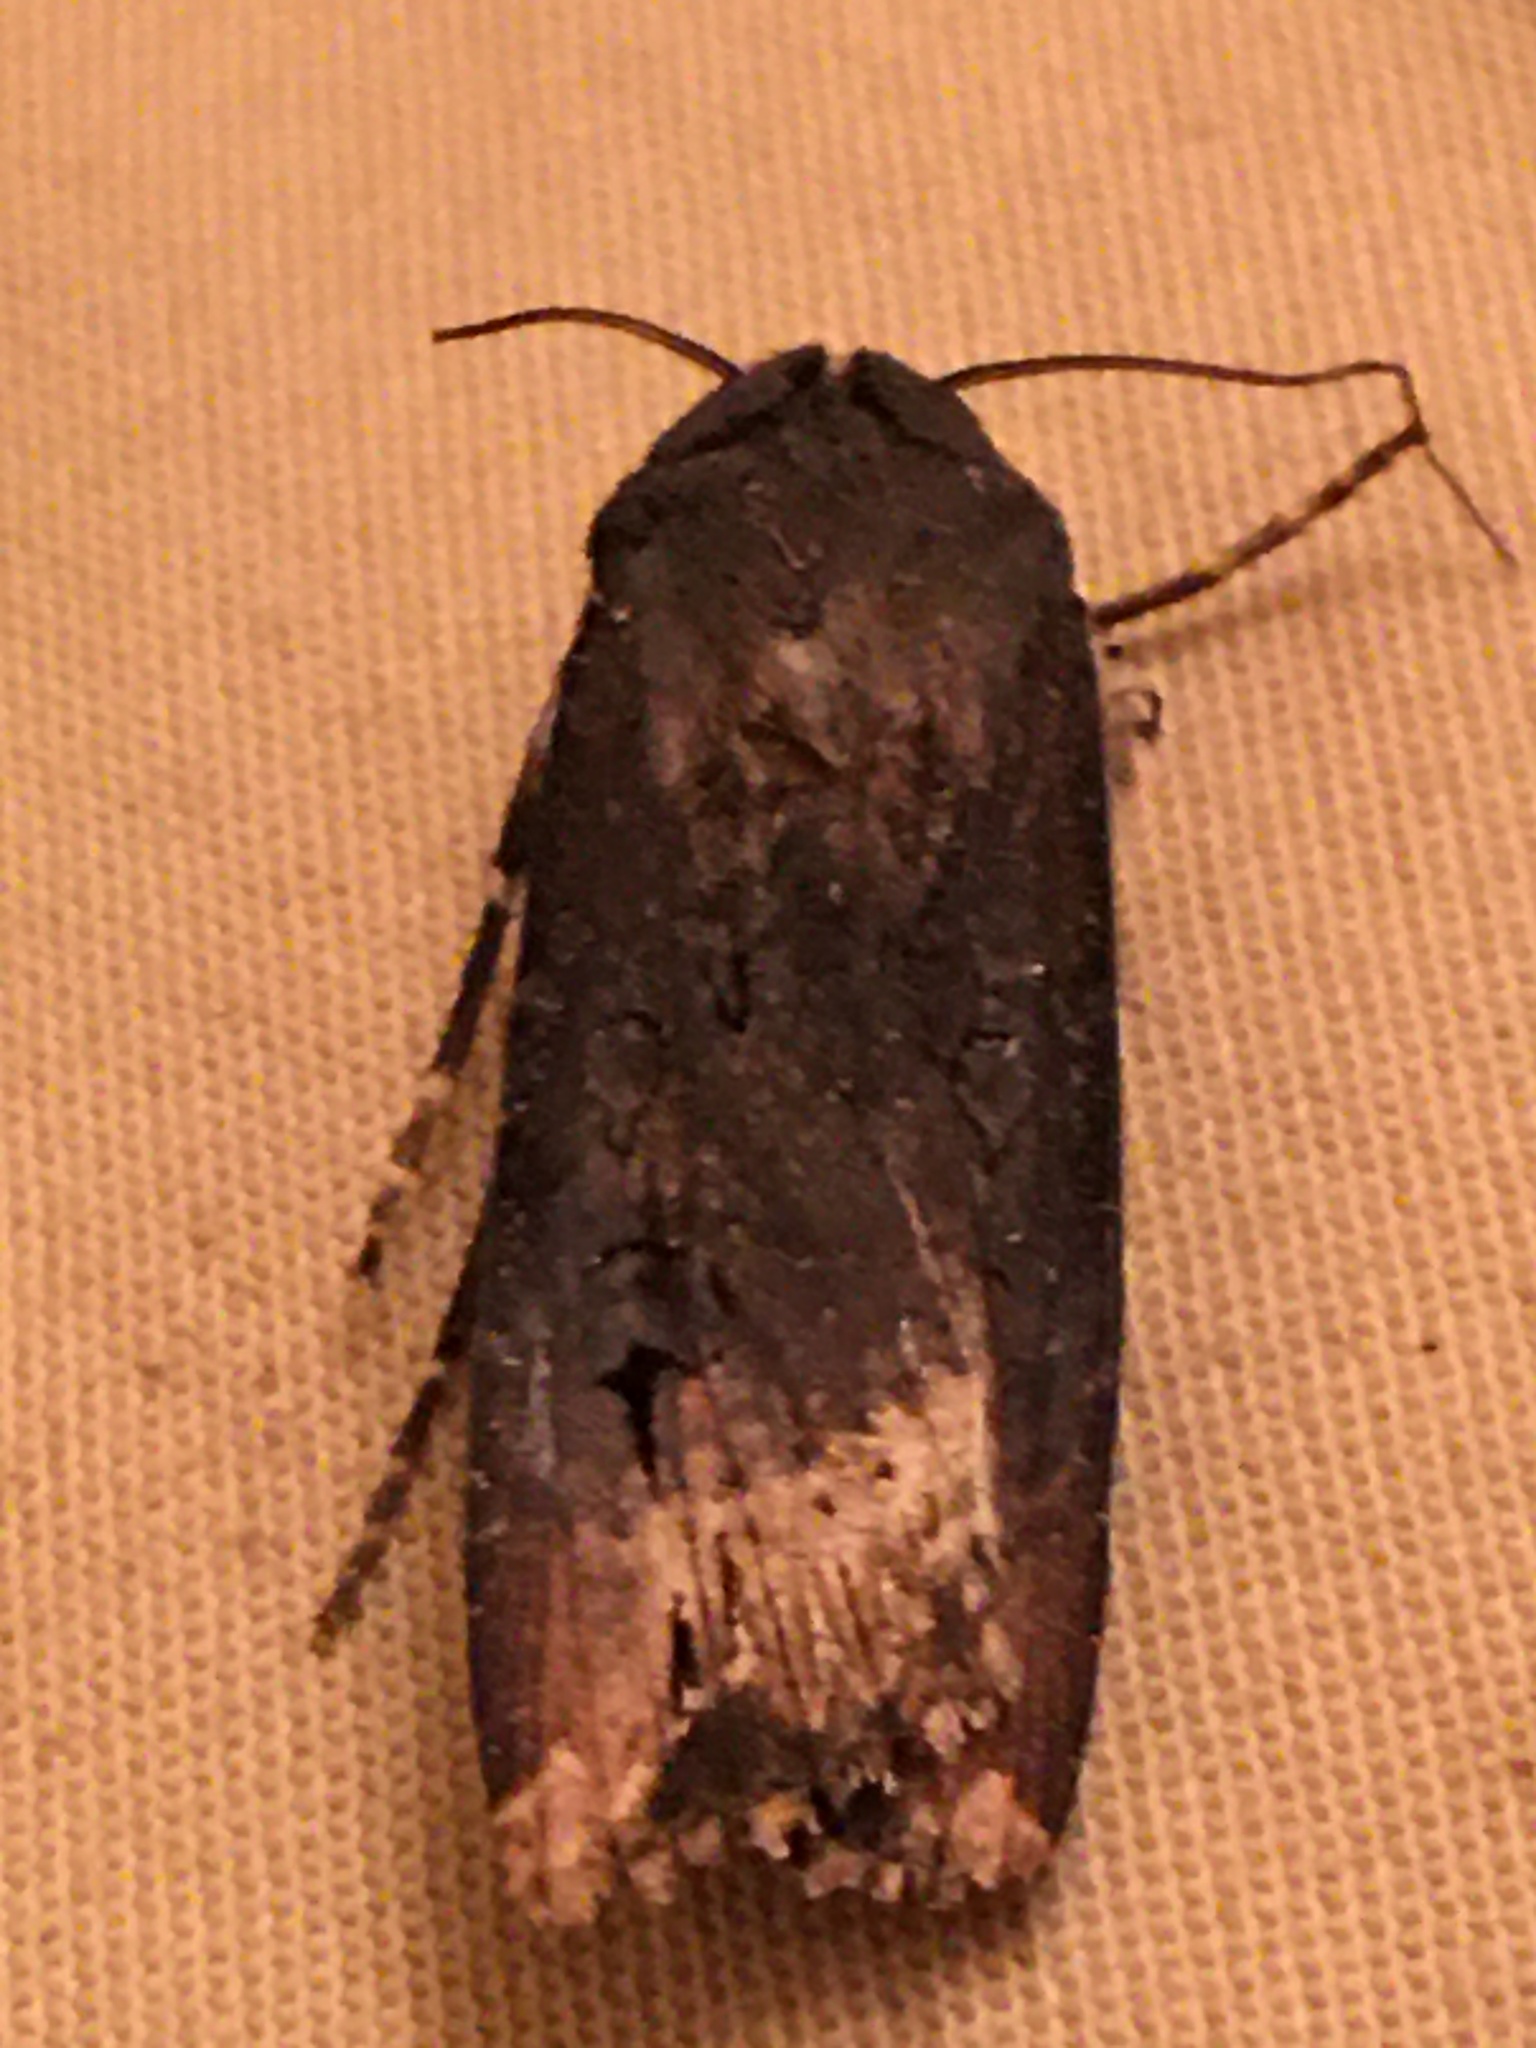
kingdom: Animalia
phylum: Arthropoda
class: Insecta
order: Lepidoptera
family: Noctuidae
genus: Agrotis
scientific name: Agrotis ipsilon
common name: Dark sword-grass
